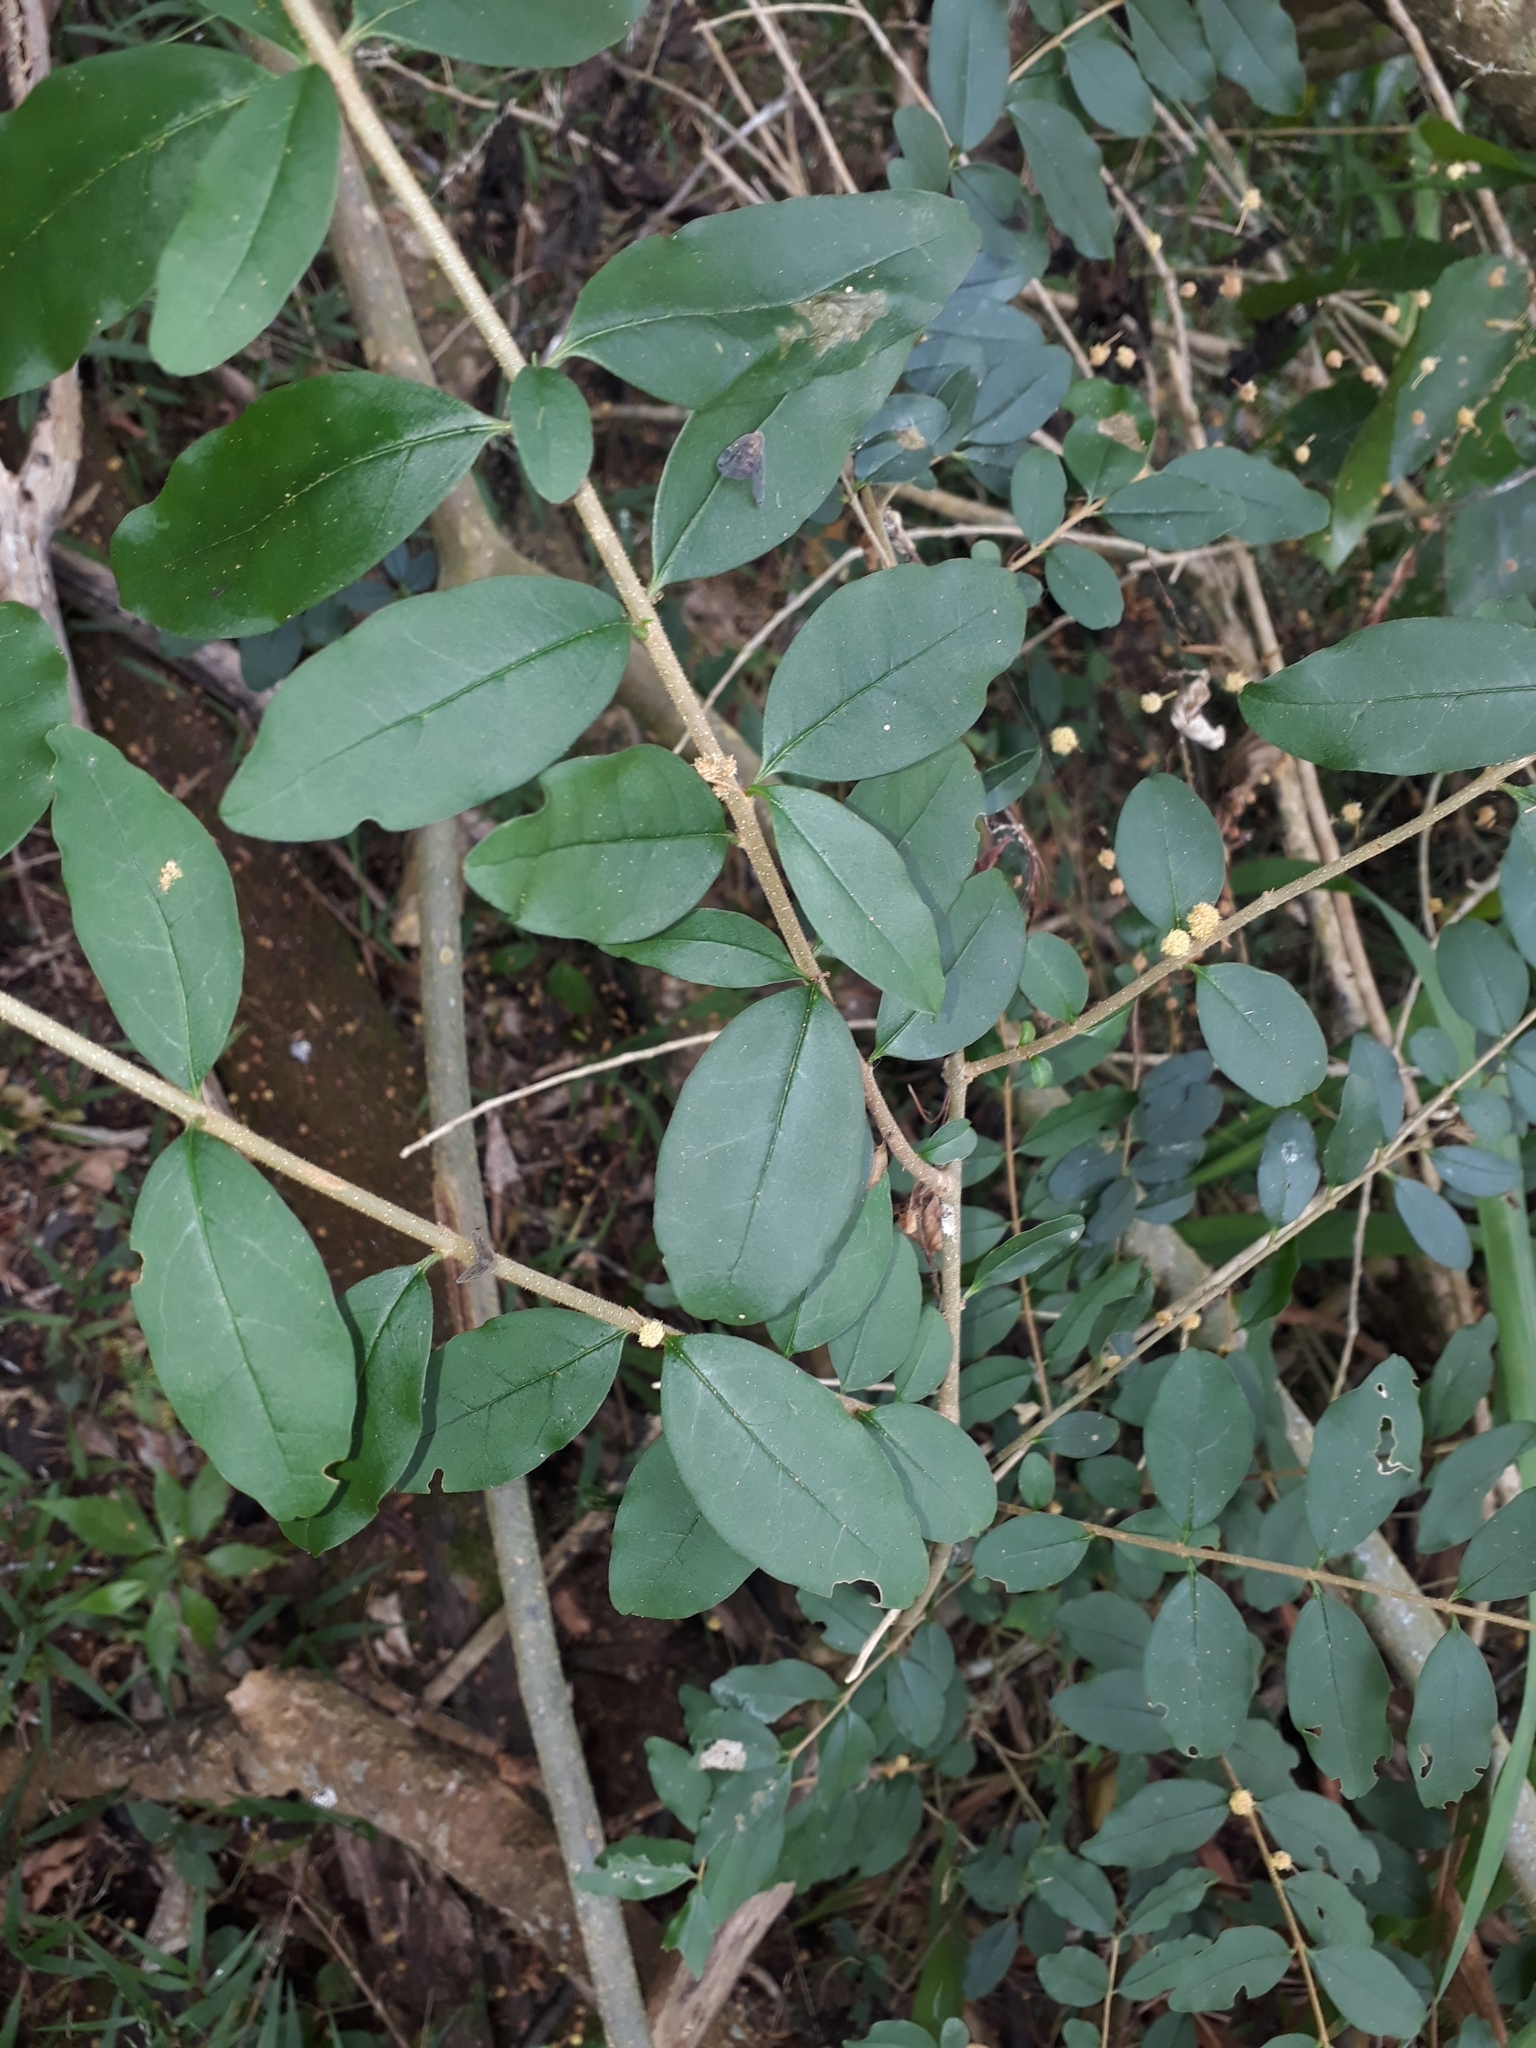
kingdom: Plantae
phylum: Tracheophyta
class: Magnoliopsida
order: Lamiales
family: Oleaceae
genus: Ligustrum
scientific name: Ligustrum sinense
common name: Chinese privet
